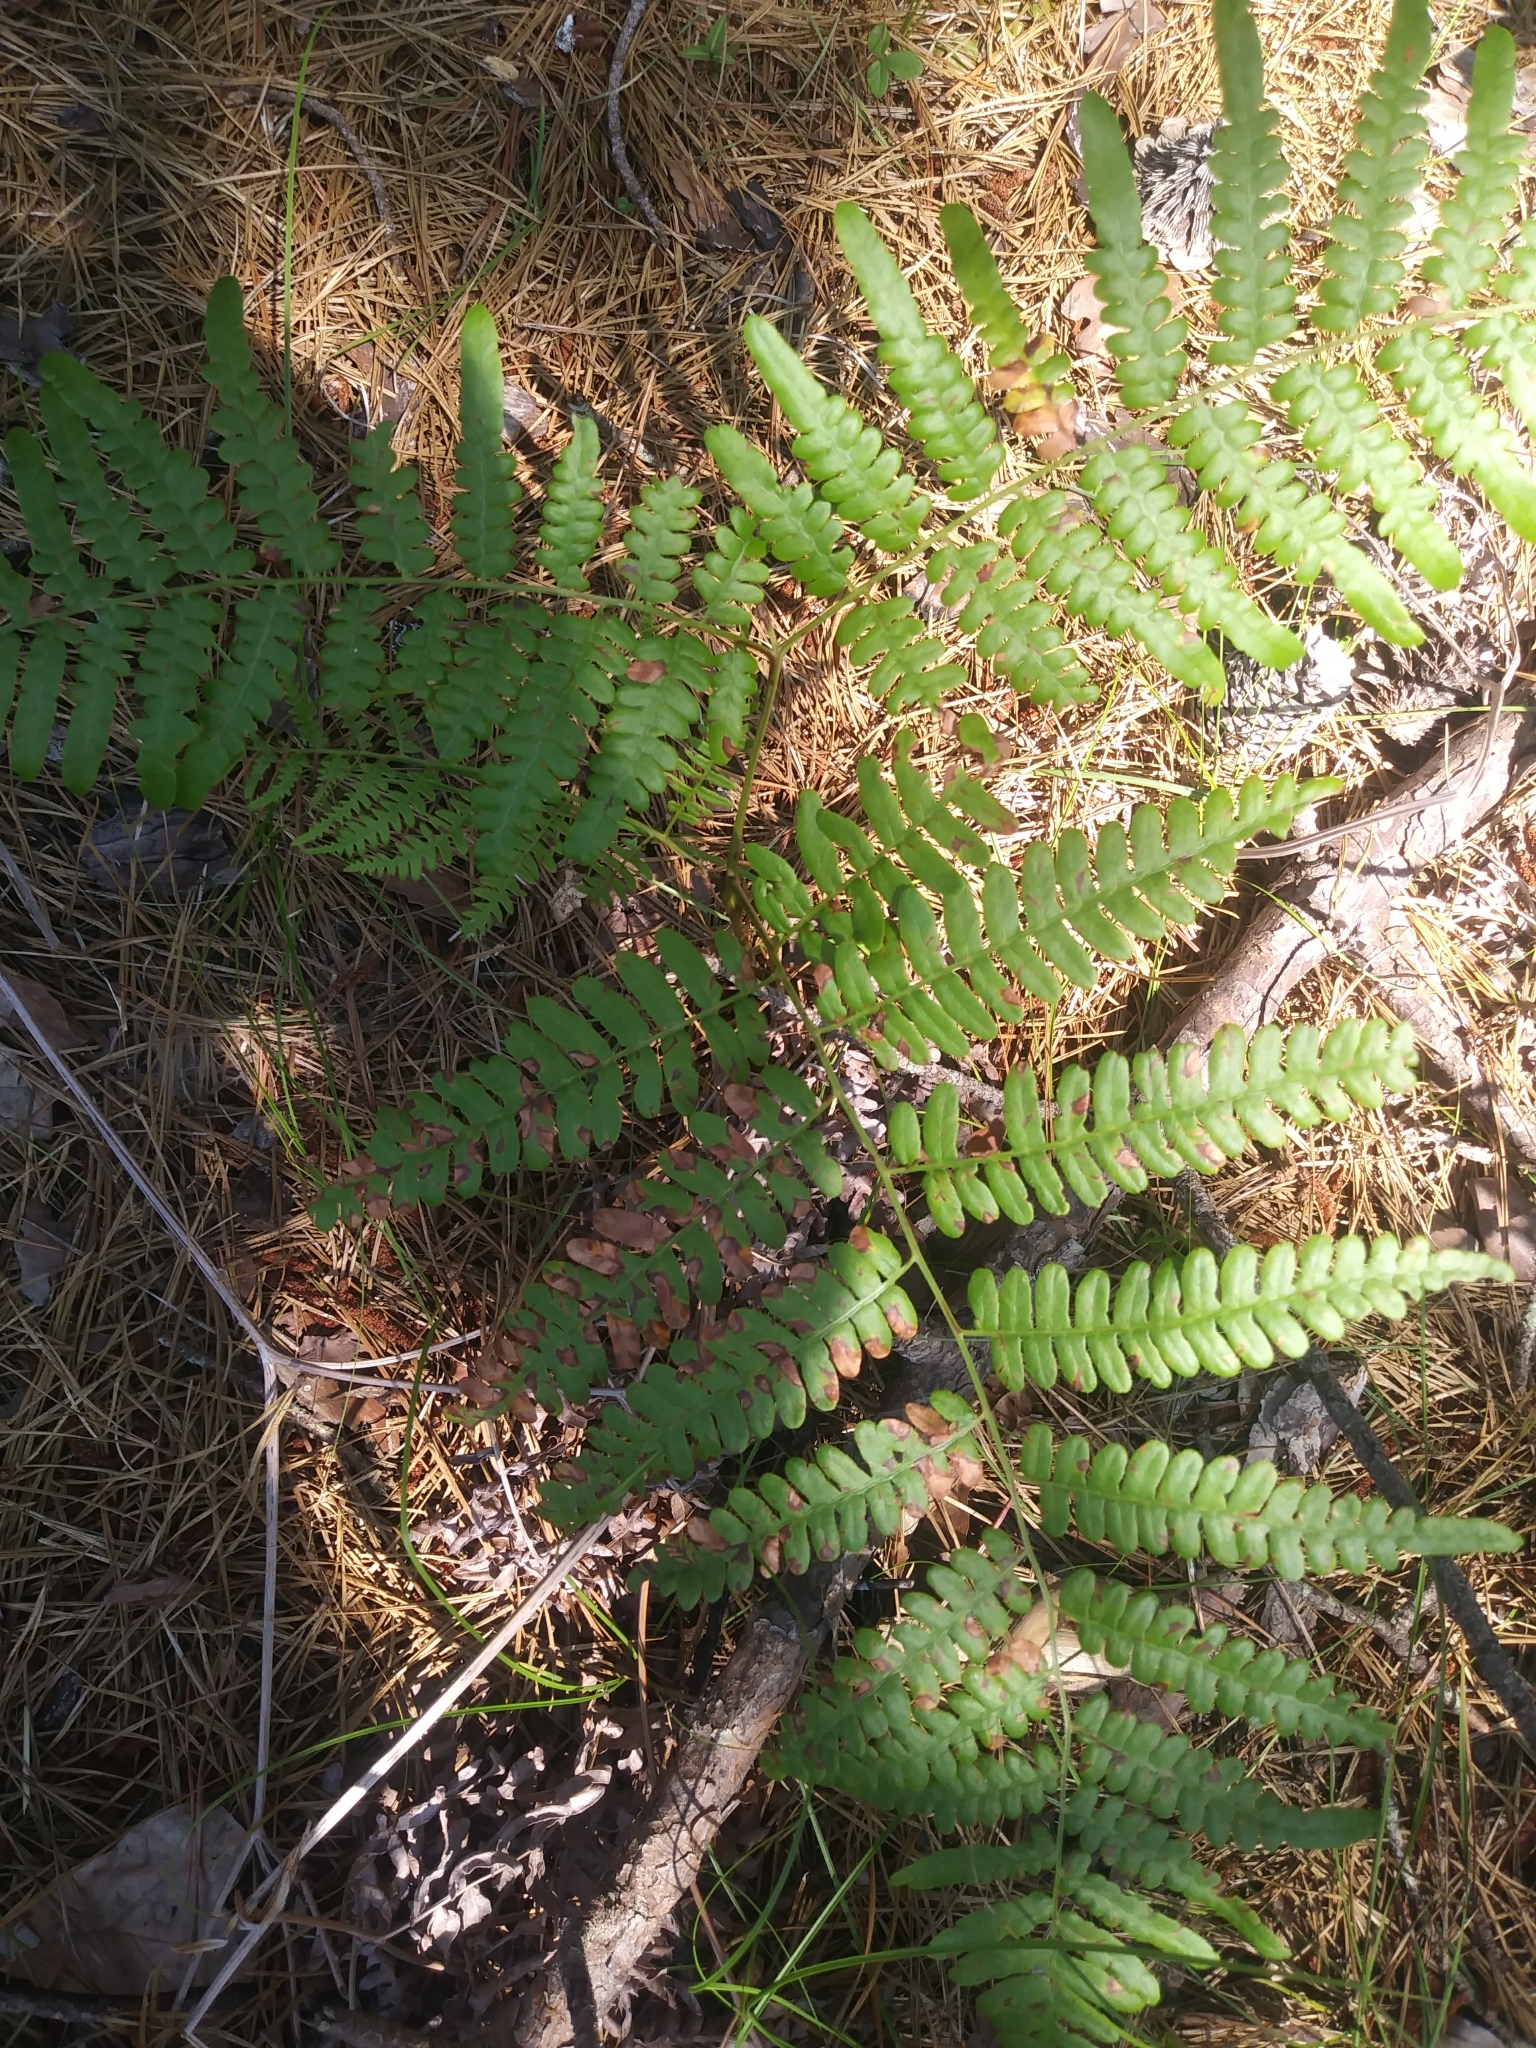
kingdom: Plantae
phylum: Tracheophyta
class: Polypodiopsida
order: Polypodiales
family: Dennstaedtiaceae
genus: Pteridium
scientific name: Pteridium aquilinum
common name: Bracken
